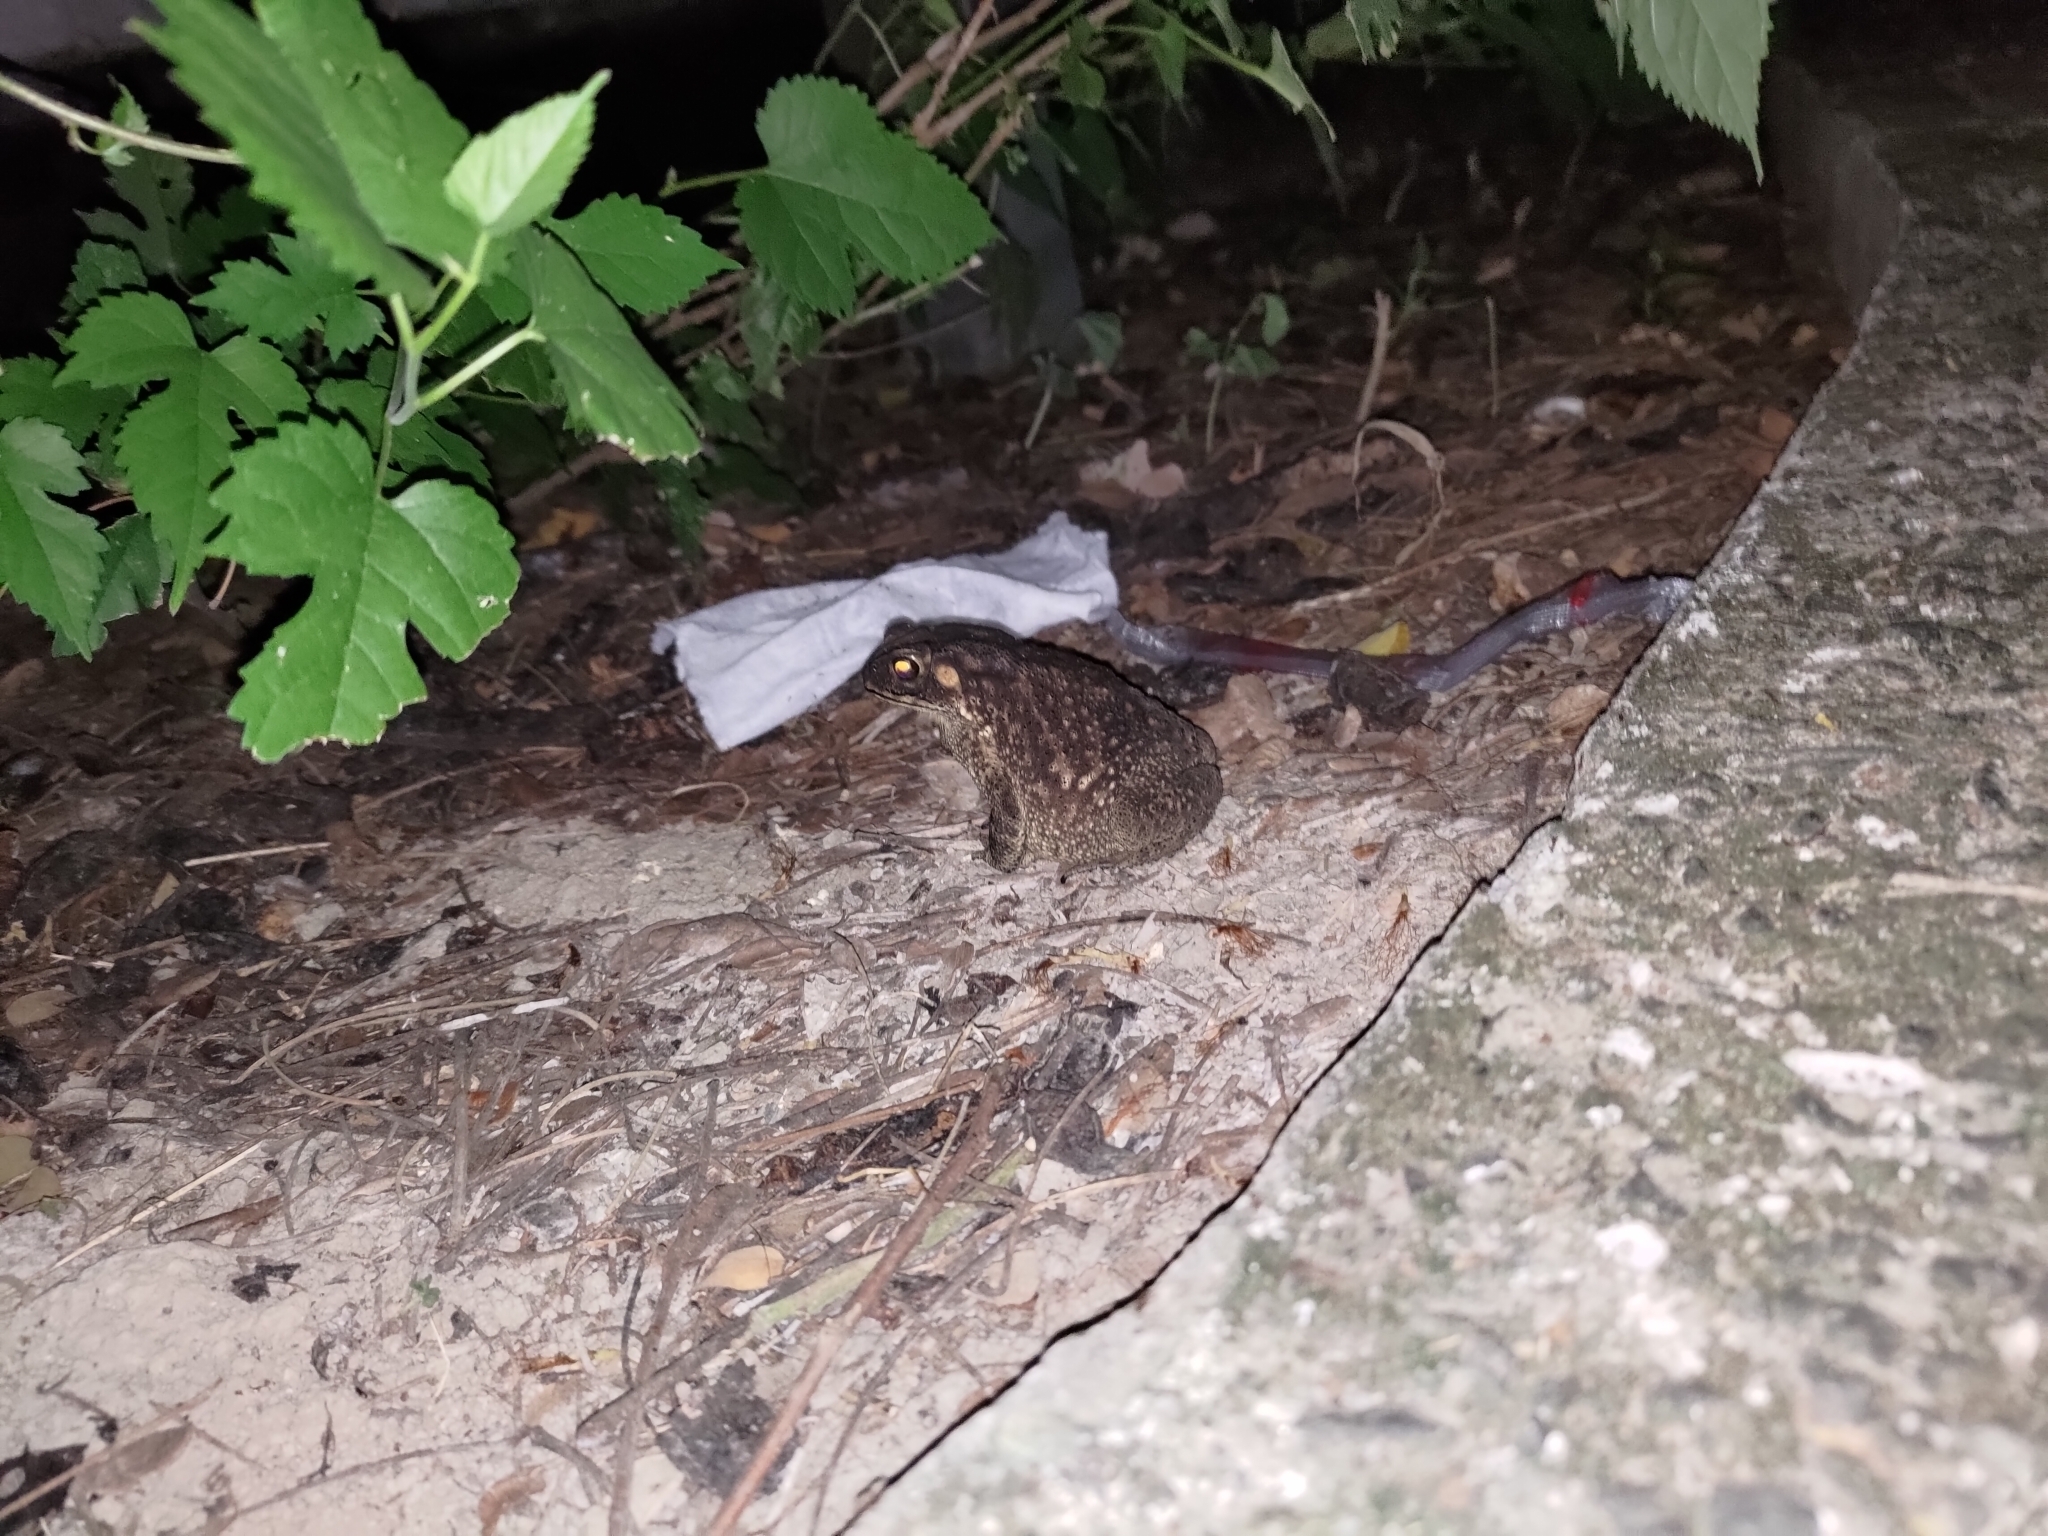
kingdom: Animalia
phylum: Chordata
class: Amphibia
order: Anura
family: Bufonidae
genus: Duttaphrynus
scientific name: Duttaphrynus melanostictus
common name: Common sunda toad
